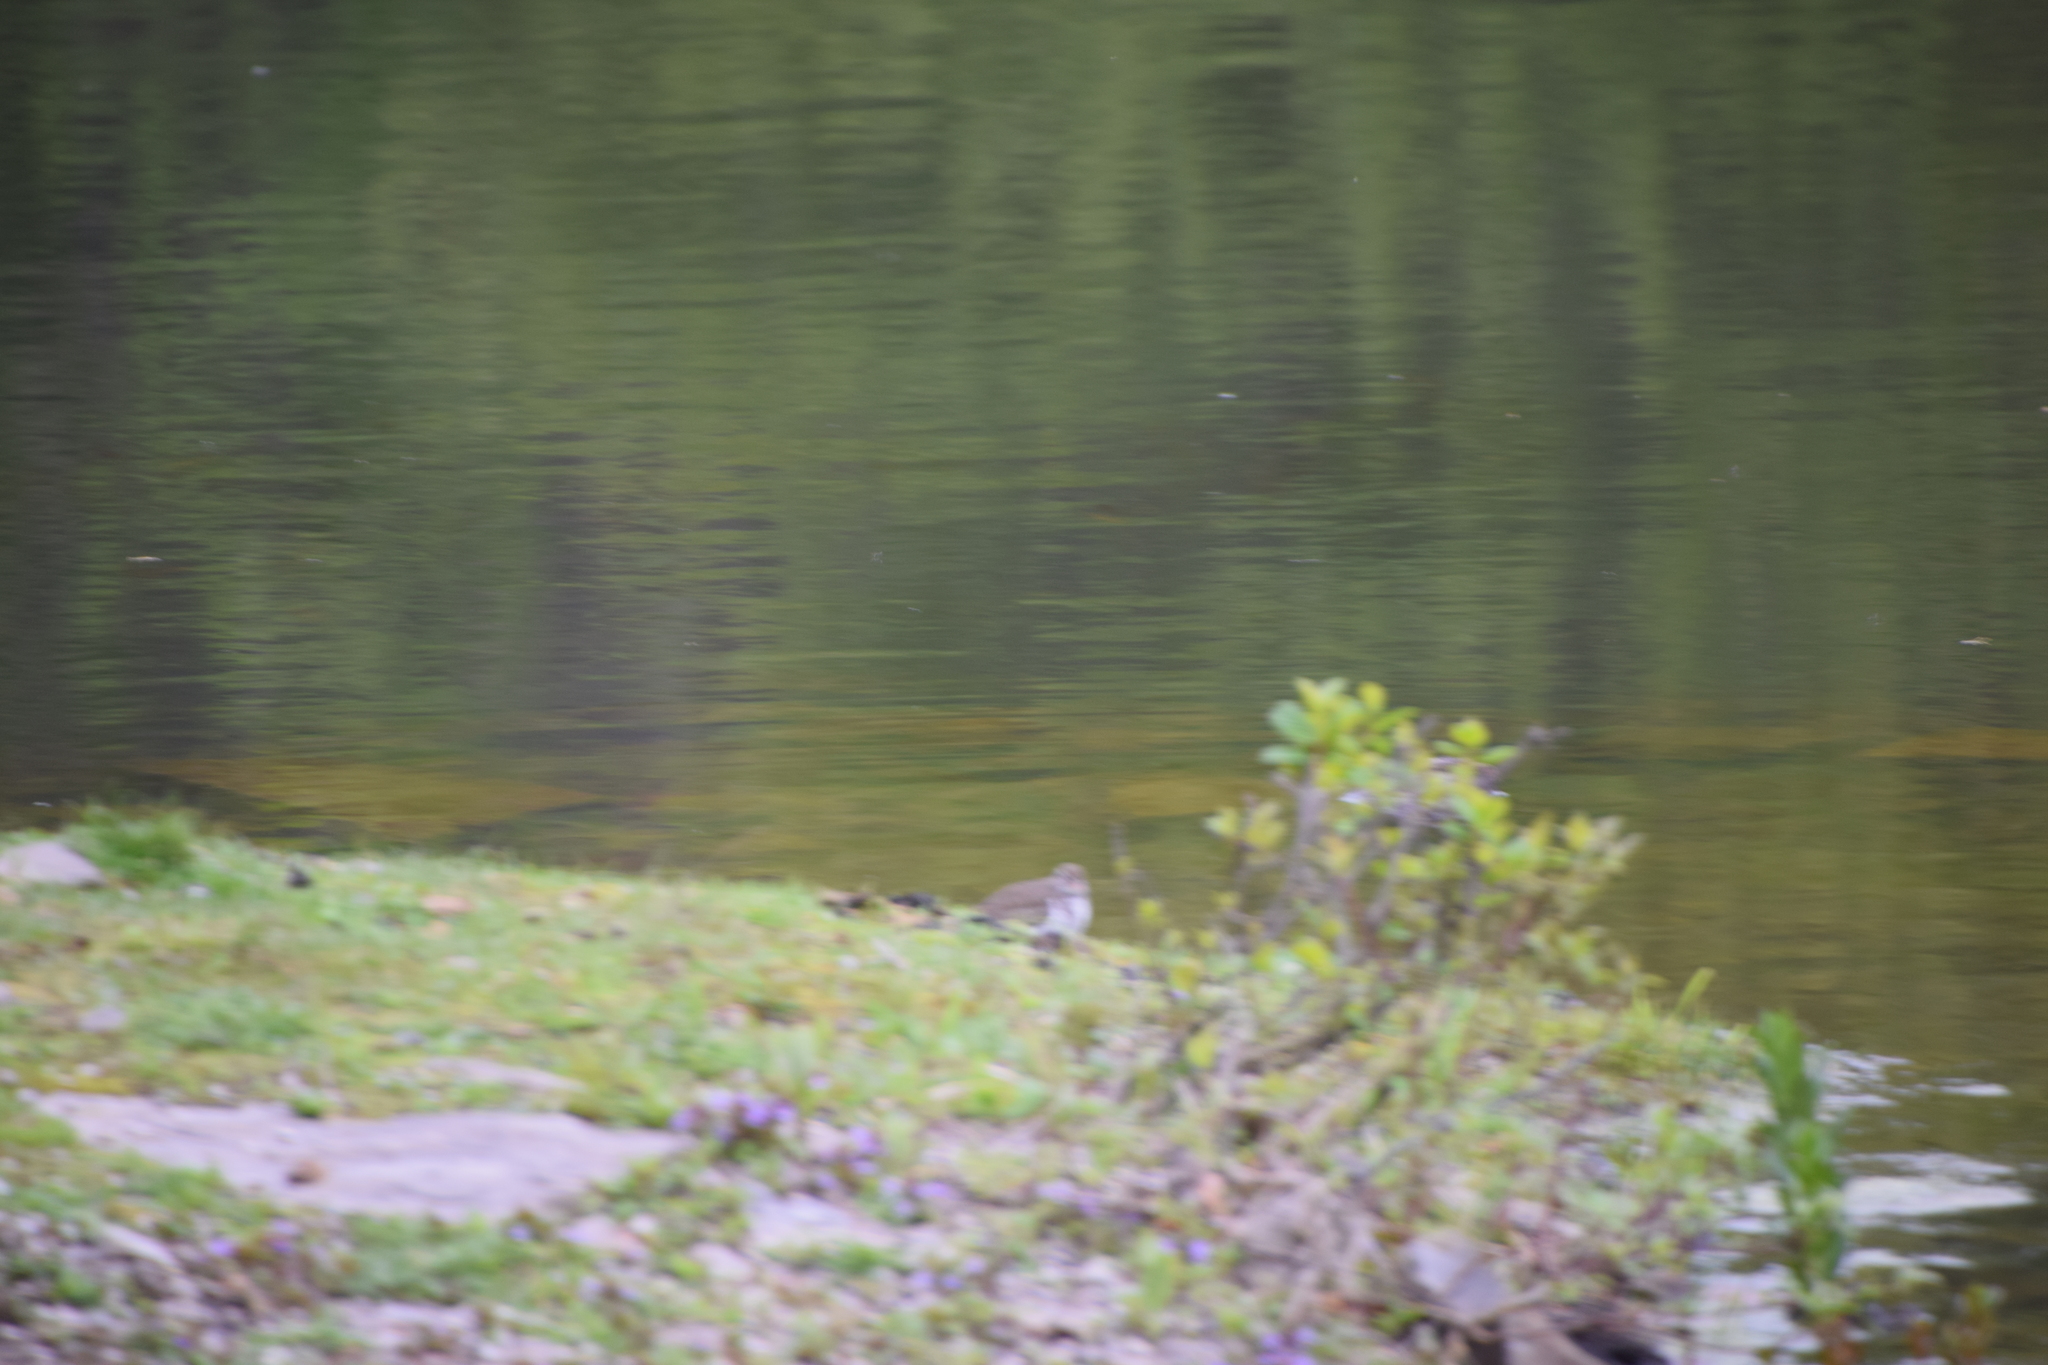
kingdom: Animalia
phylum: Chordata
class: Aves
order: Charadriiformes
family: Scolopacidae
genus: Actitis
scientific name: Actitis macularius
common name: Spotted sandpiper
